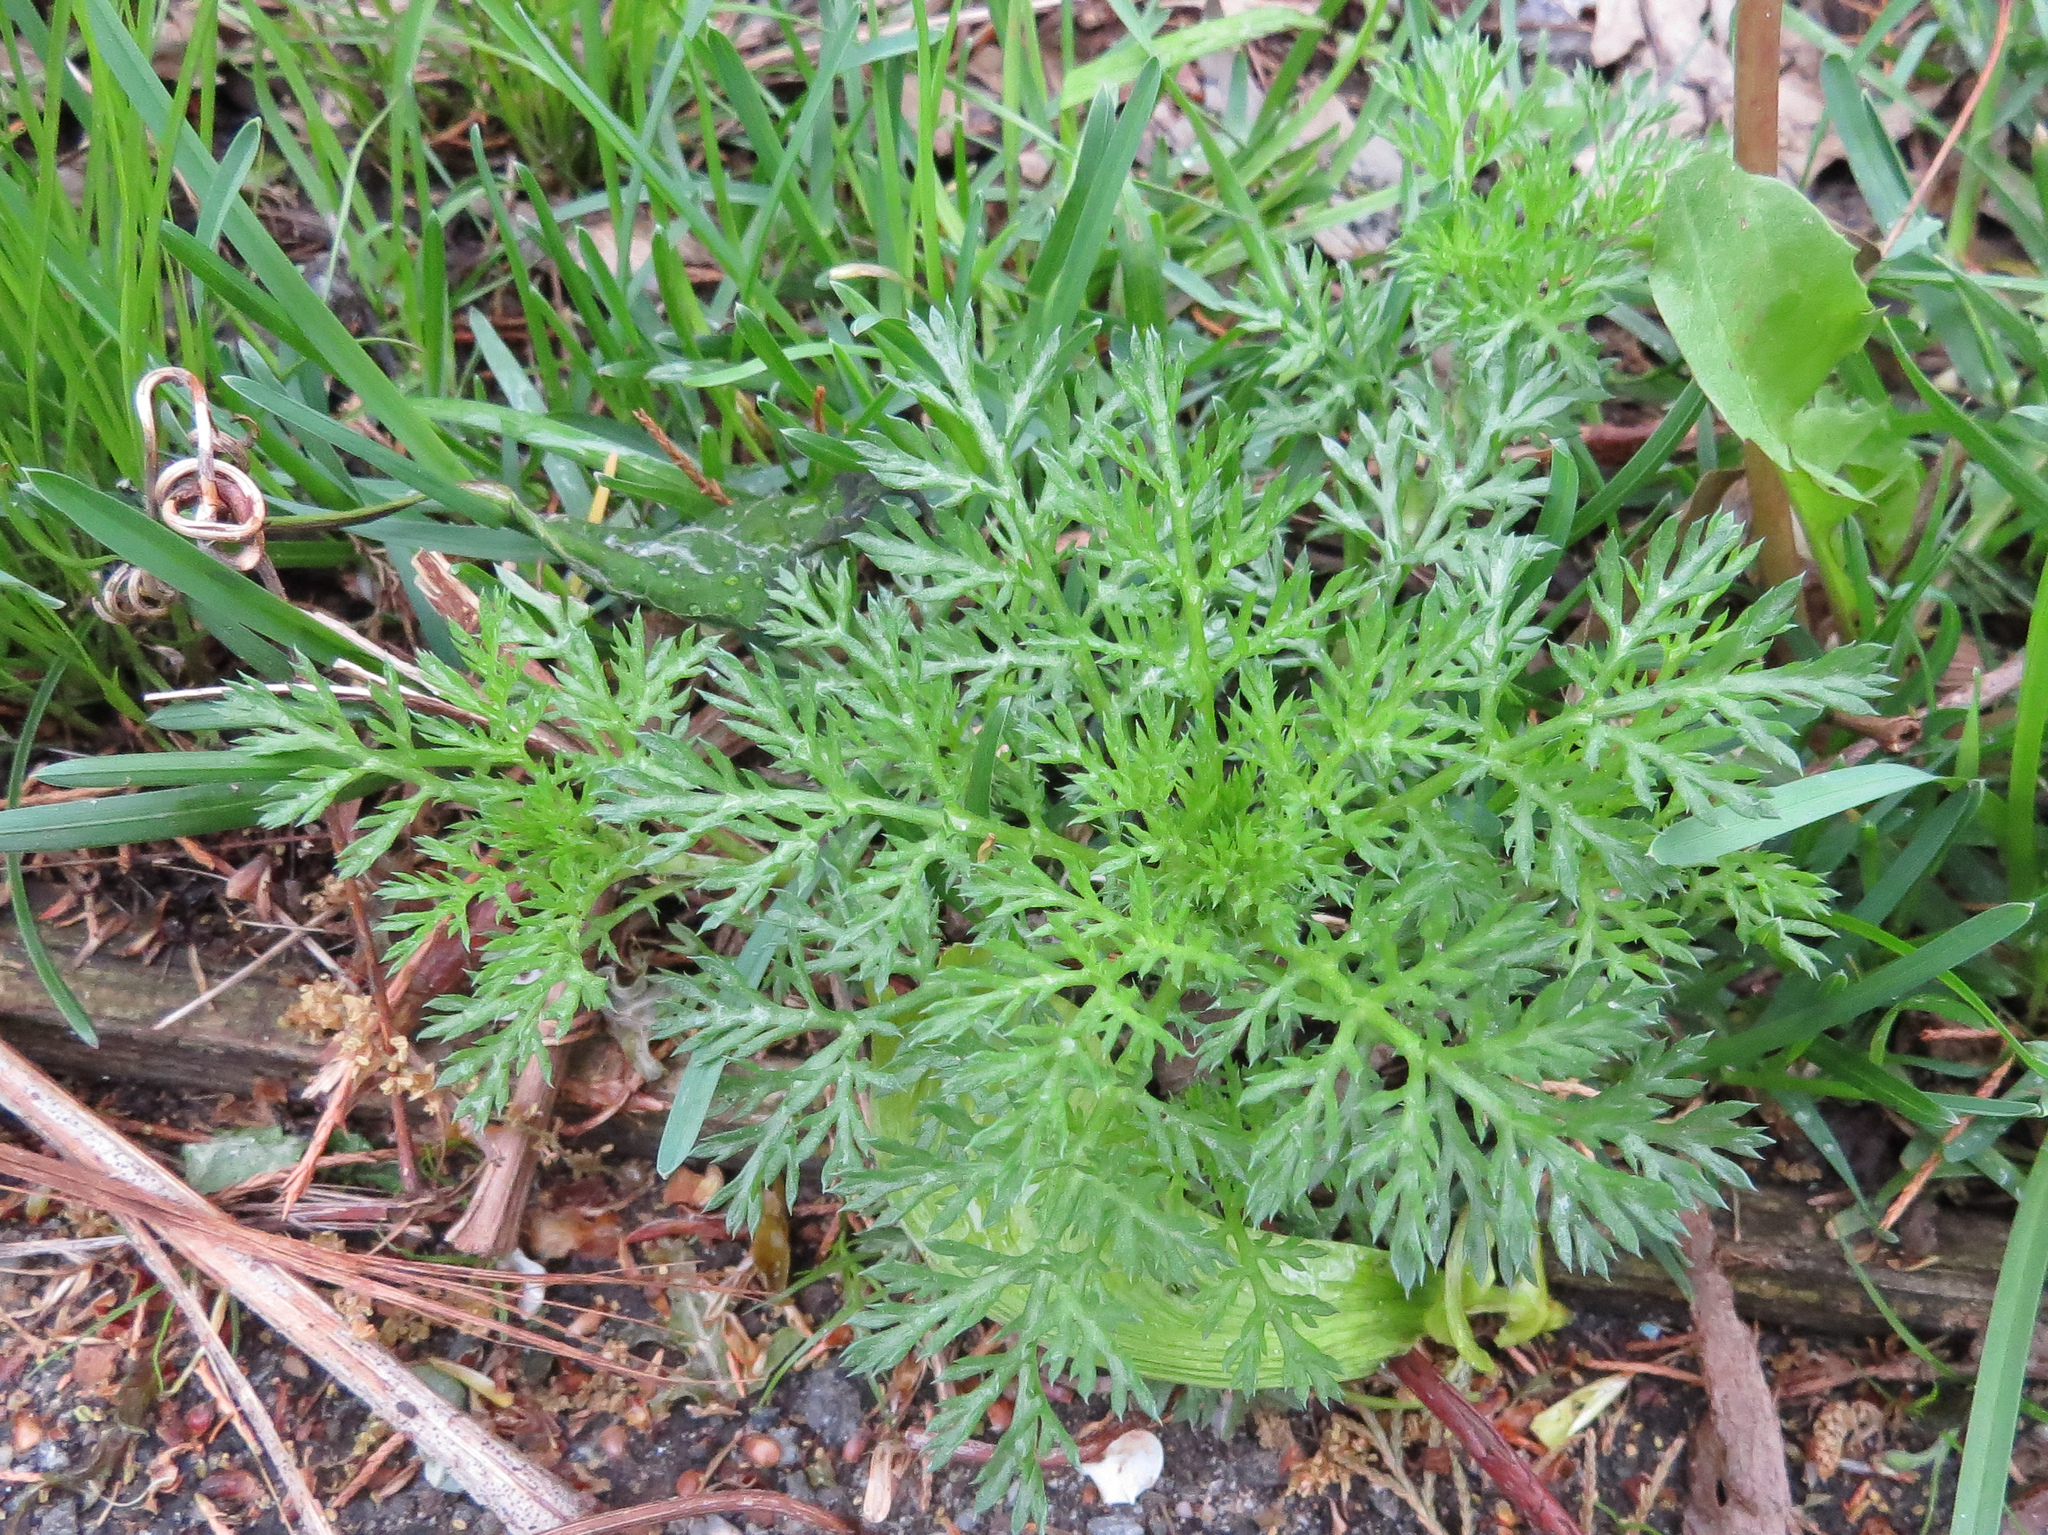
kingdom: Plantae
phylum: Tracheophyta
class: Magnoliopsida
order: Apiales
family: Apiaceae
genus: Daucus
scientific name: Daucus carota
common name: Wild carrot
